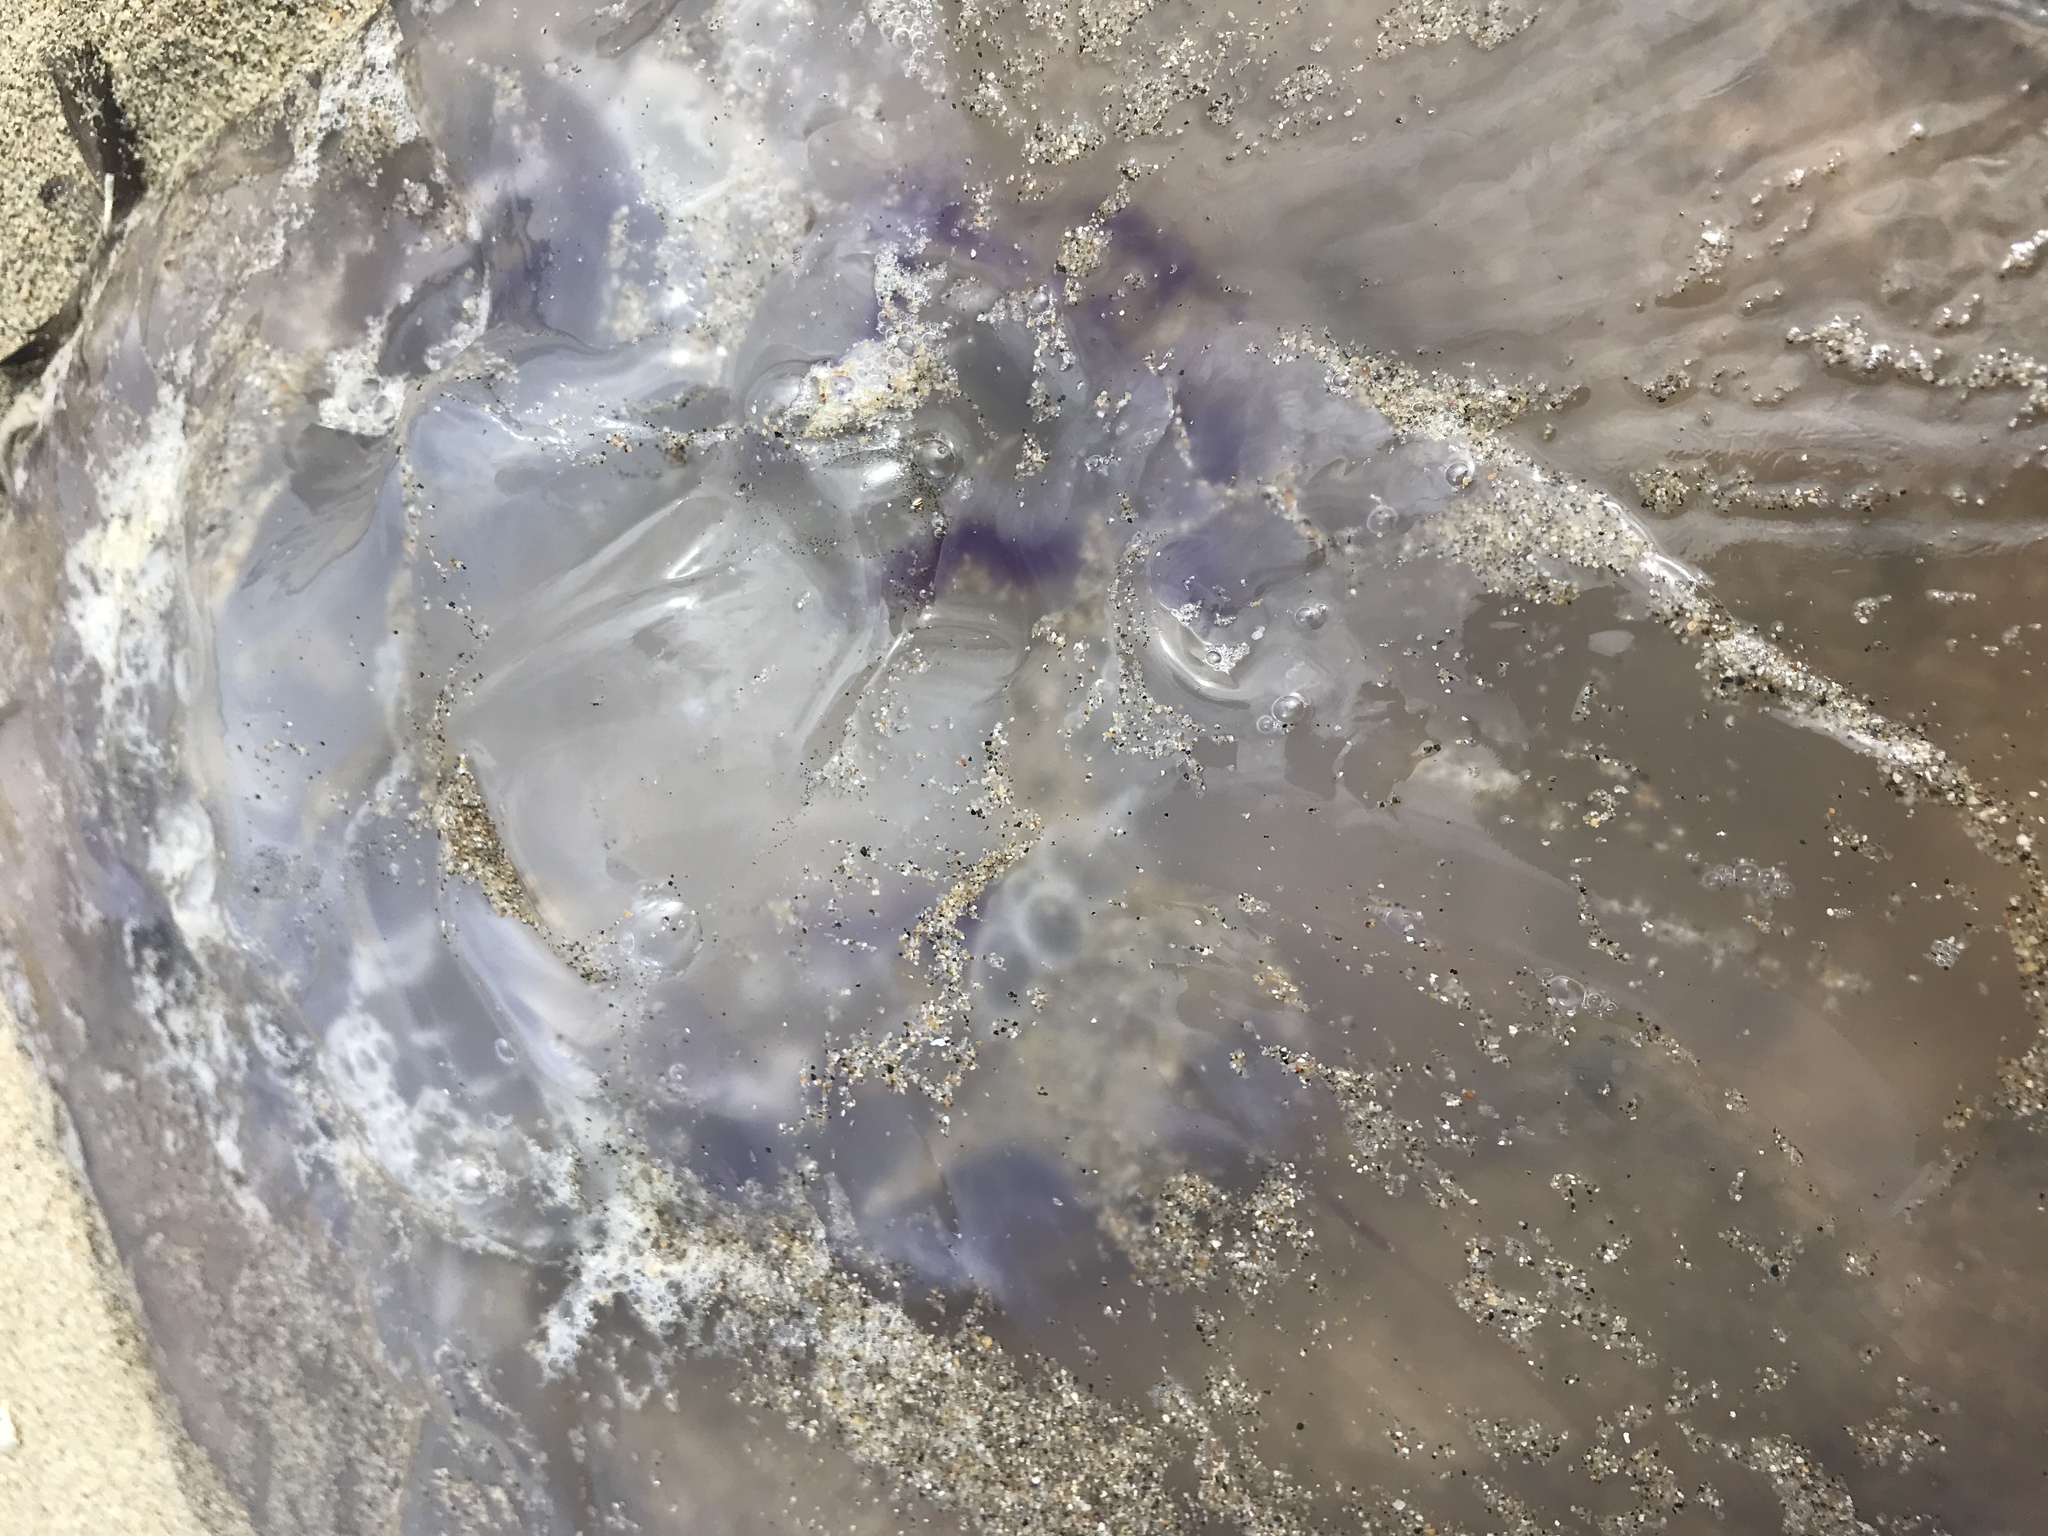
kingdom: Animalia
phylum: Cnidaria
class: Scyphozoa
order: Semaeostomeae
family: Ulmaridae
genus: Aurelia
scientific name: Aurelia labiata
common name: Pacific moon jelly
